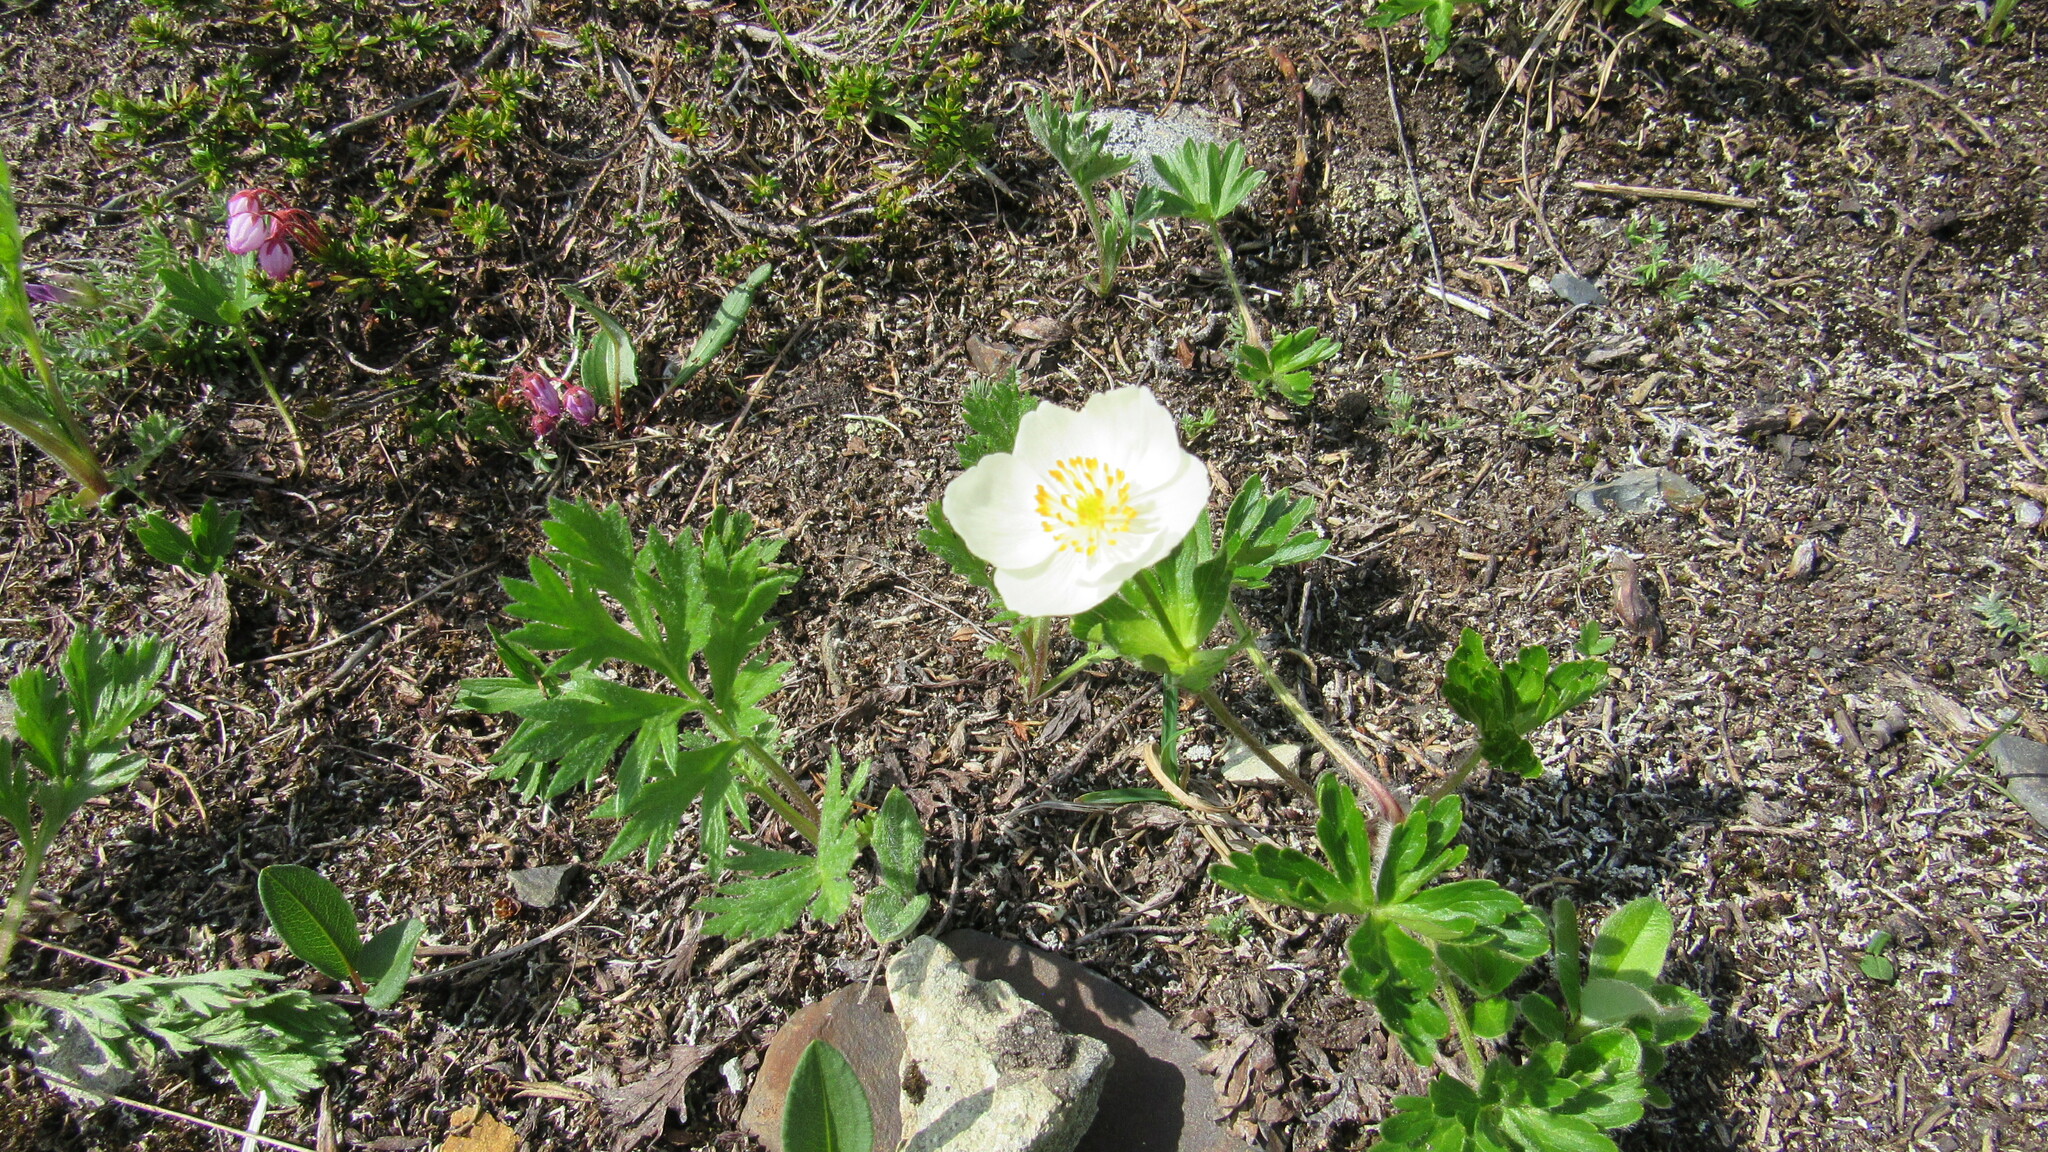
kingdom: Plantae
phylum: Tracheophyta
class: Magnoliopsida
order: Ranunculales
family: Ranunculaceae
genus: Anemonastrum
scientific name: Anemonastrum narcissiflorum
